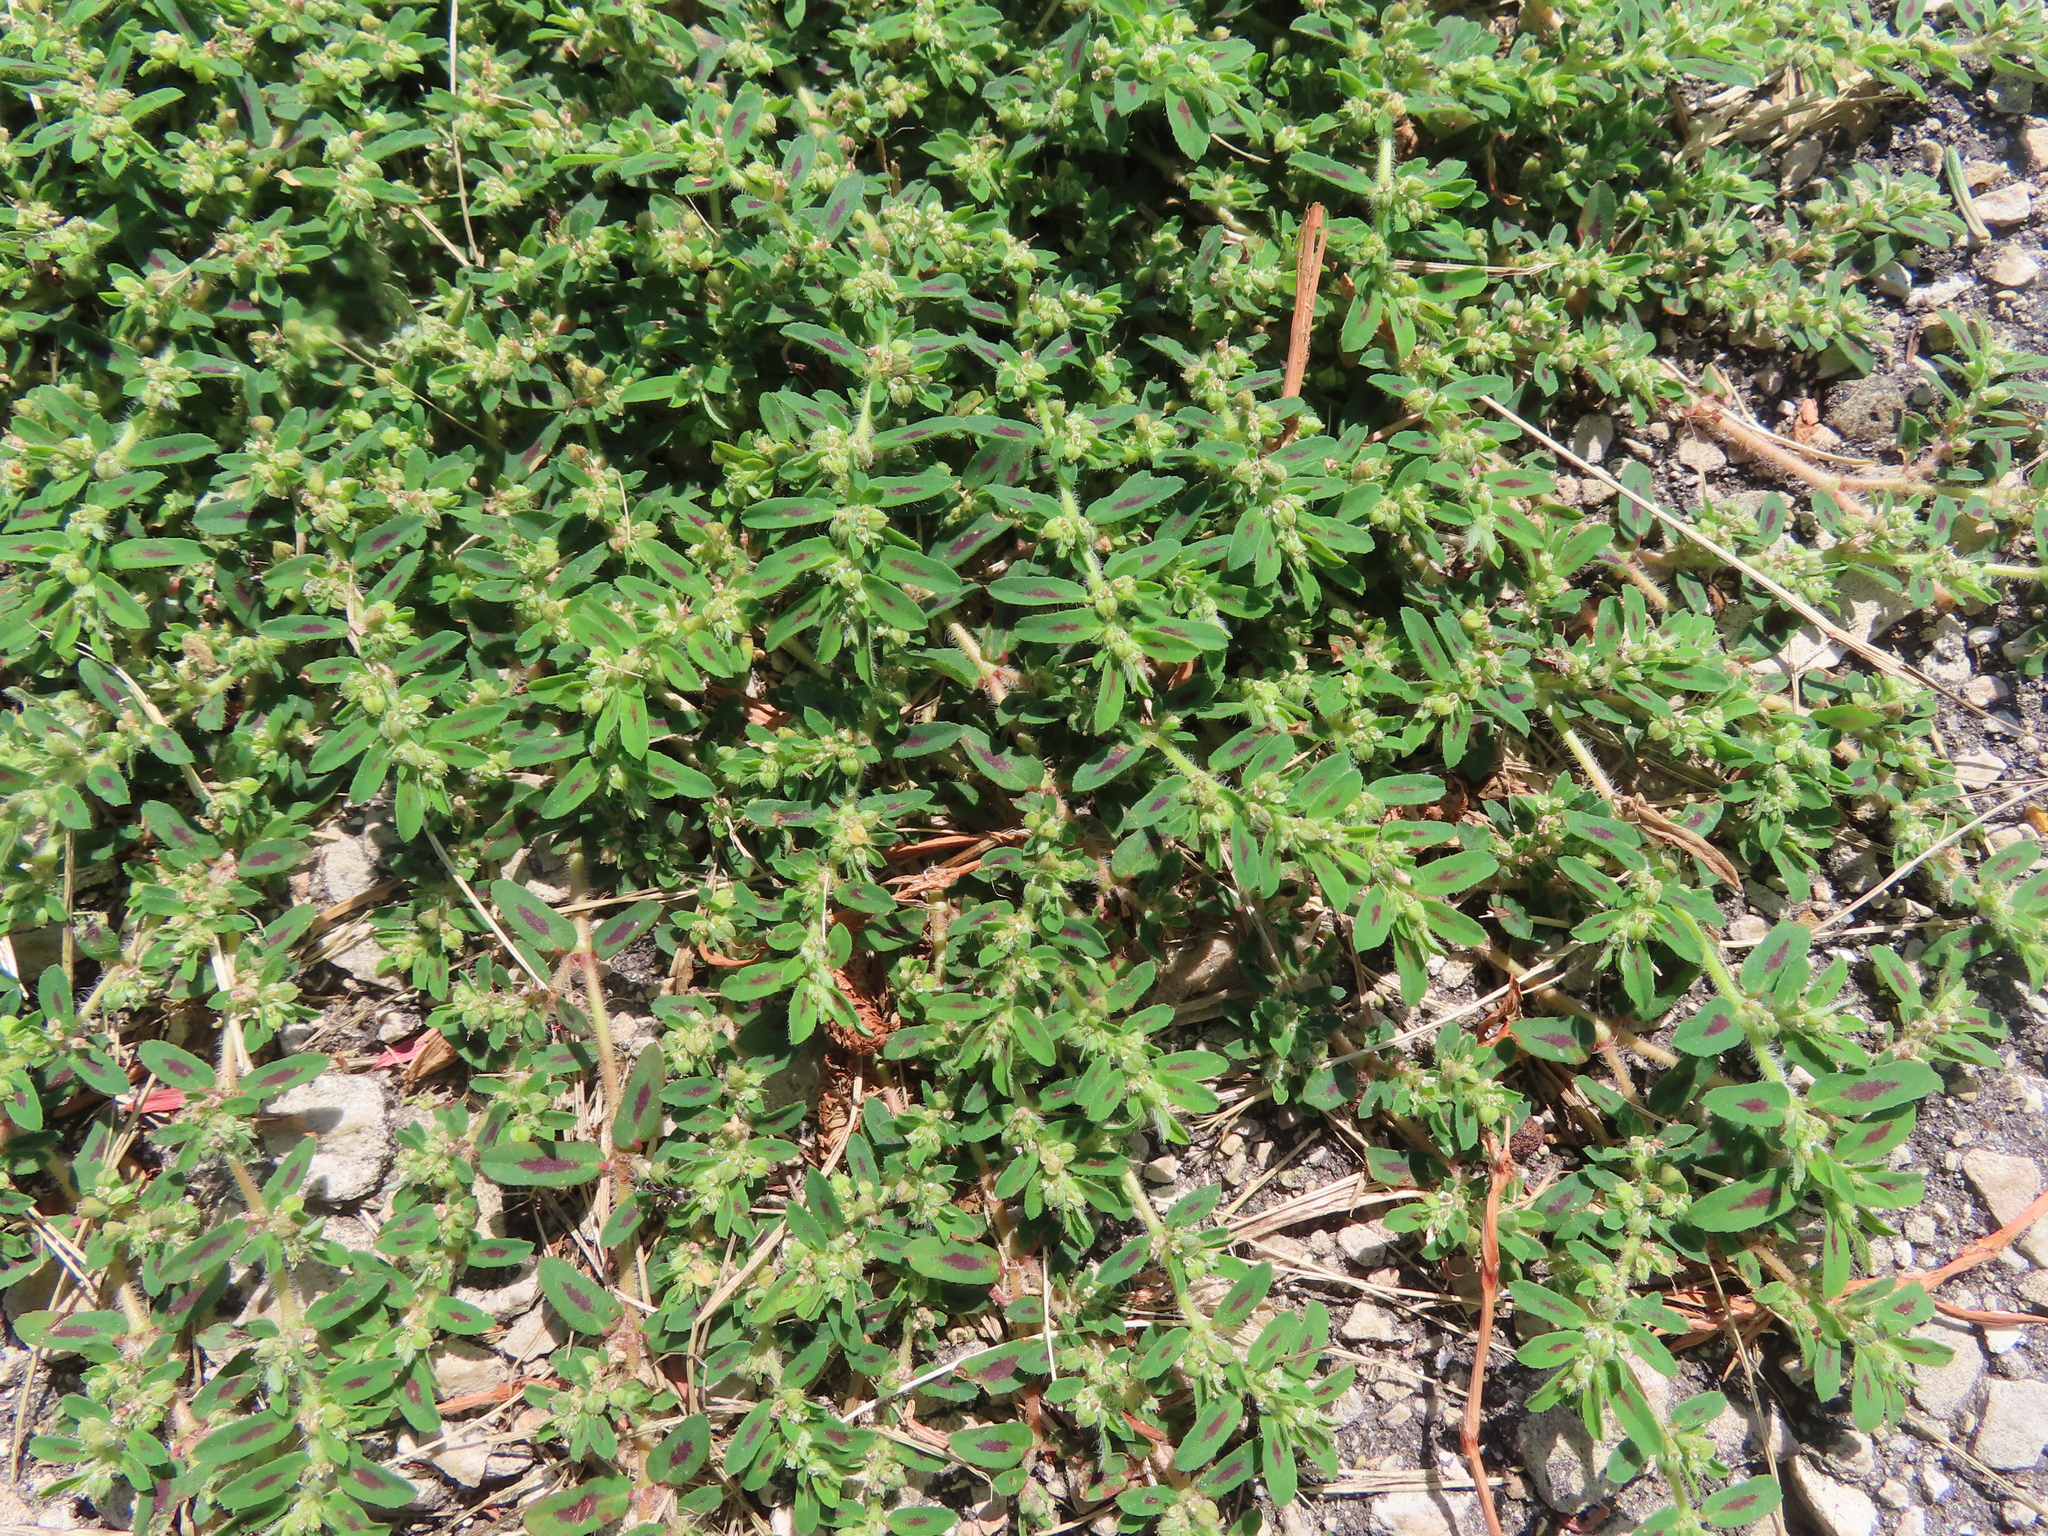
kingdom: Plantae
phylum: Tracheophyta
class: Magnoliopsida
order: Malpighiales
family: Euphorbiaceae
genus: Euphorbia
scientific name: Euphorbia maculata
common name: Spotted spurge
